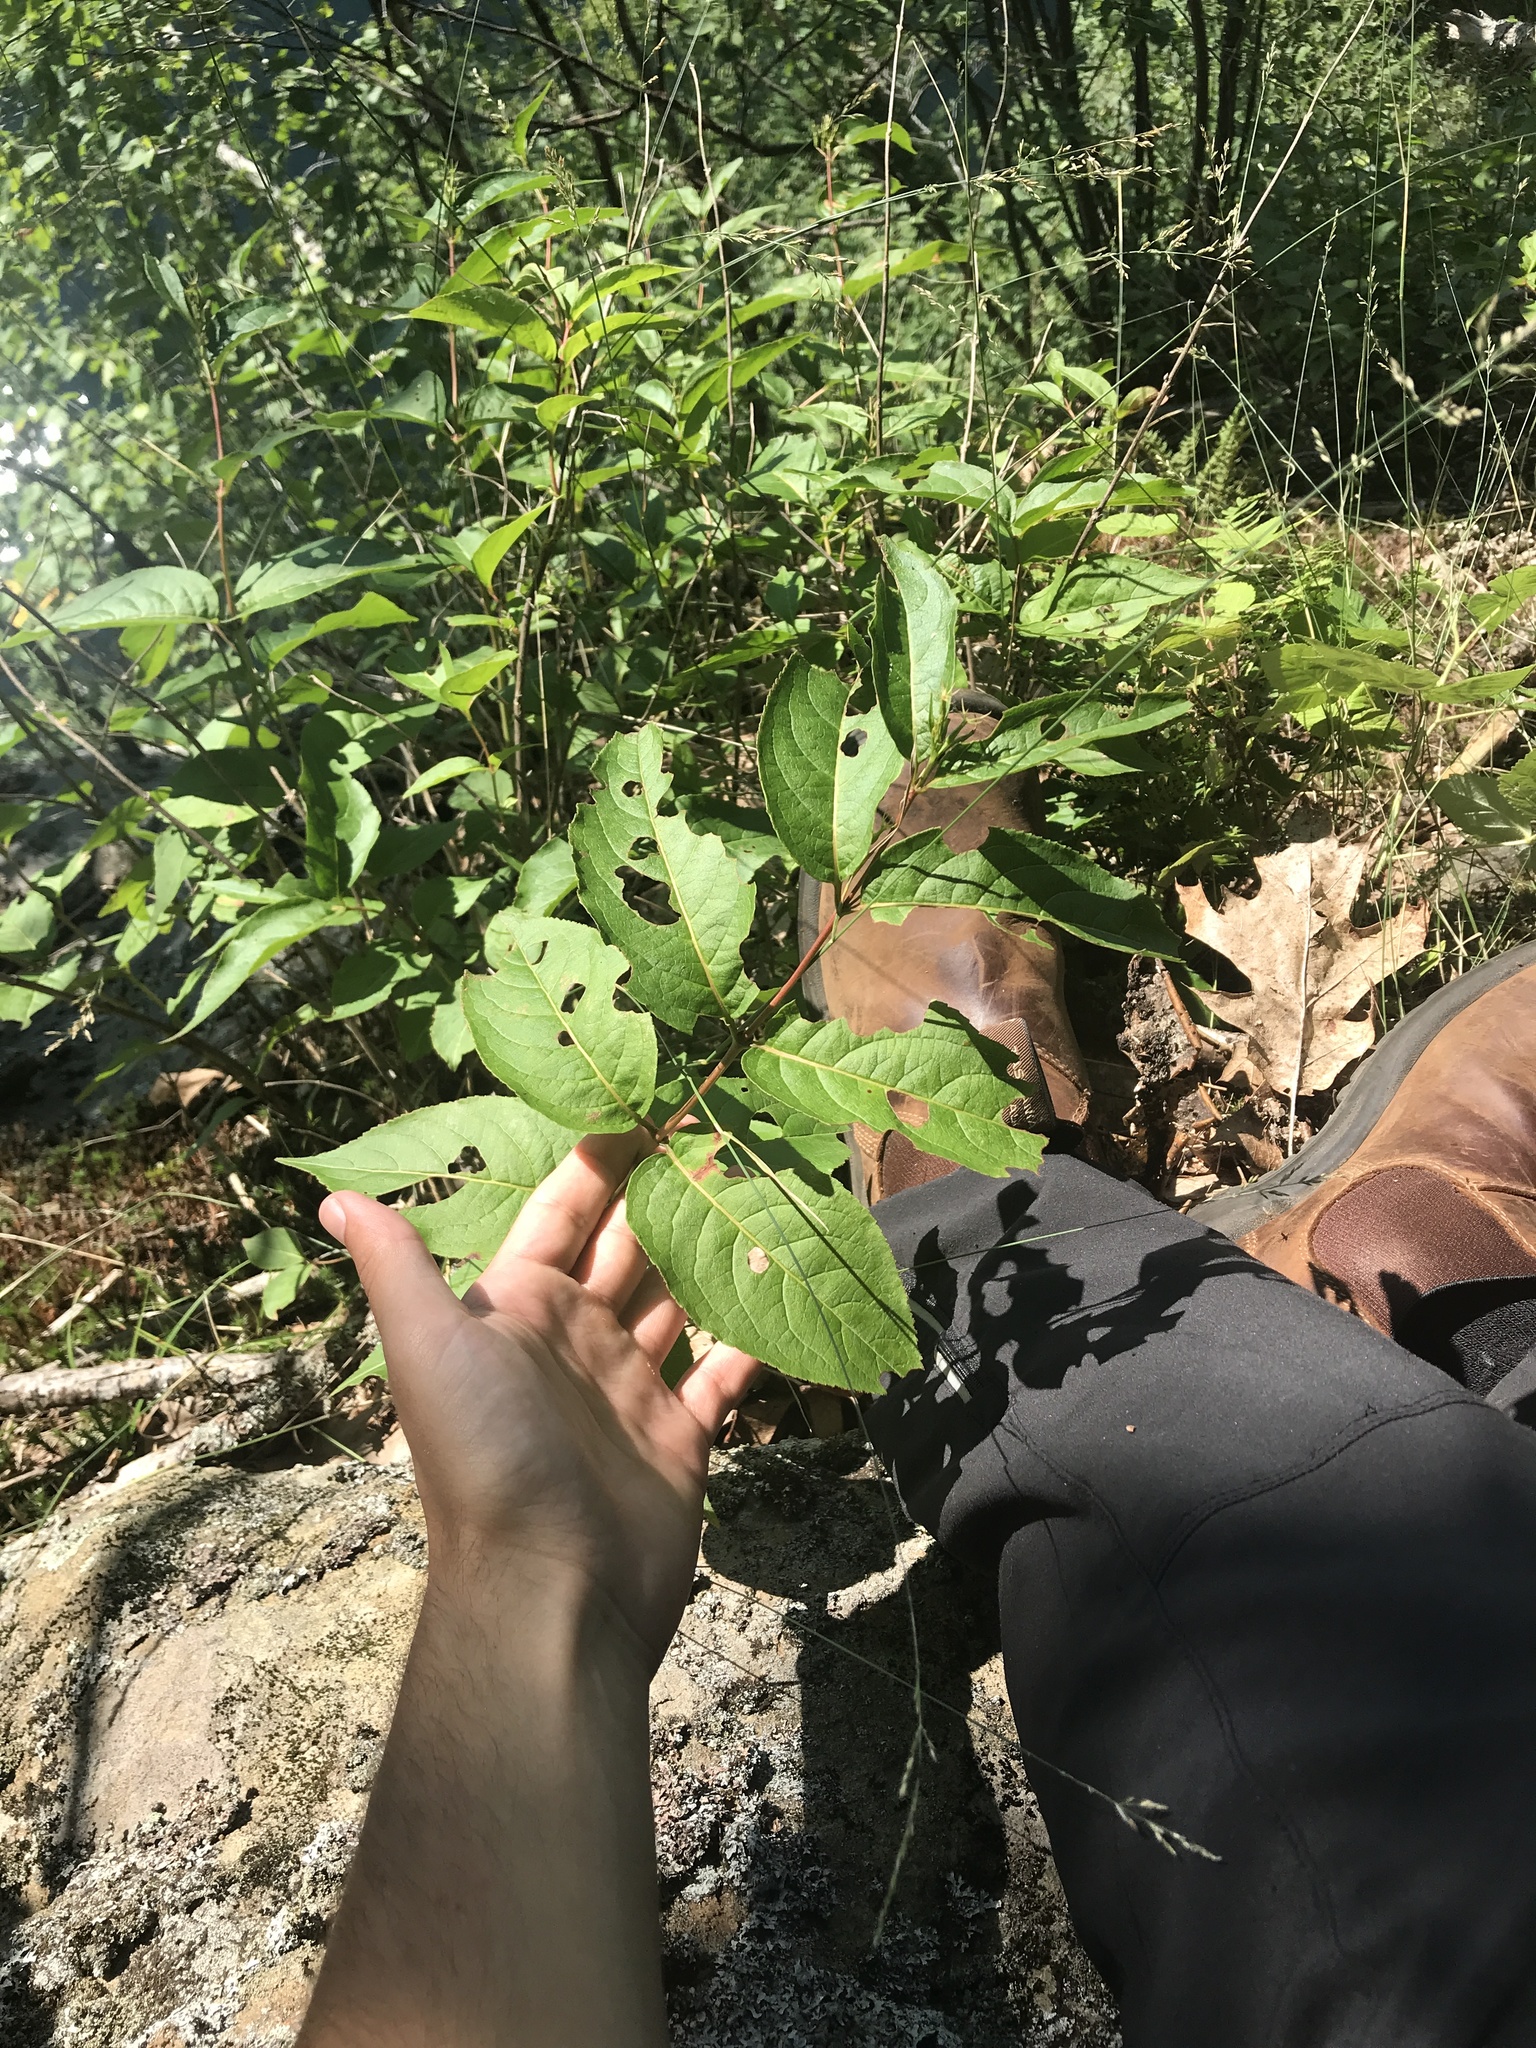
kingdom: Plantae
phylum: Tracheophyta
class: Magnoliopsida
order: Dipsacales
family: Caprifoliaceae
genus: Diervilla
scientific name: Diervilla lonicera
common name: Bush-honeysuckle
